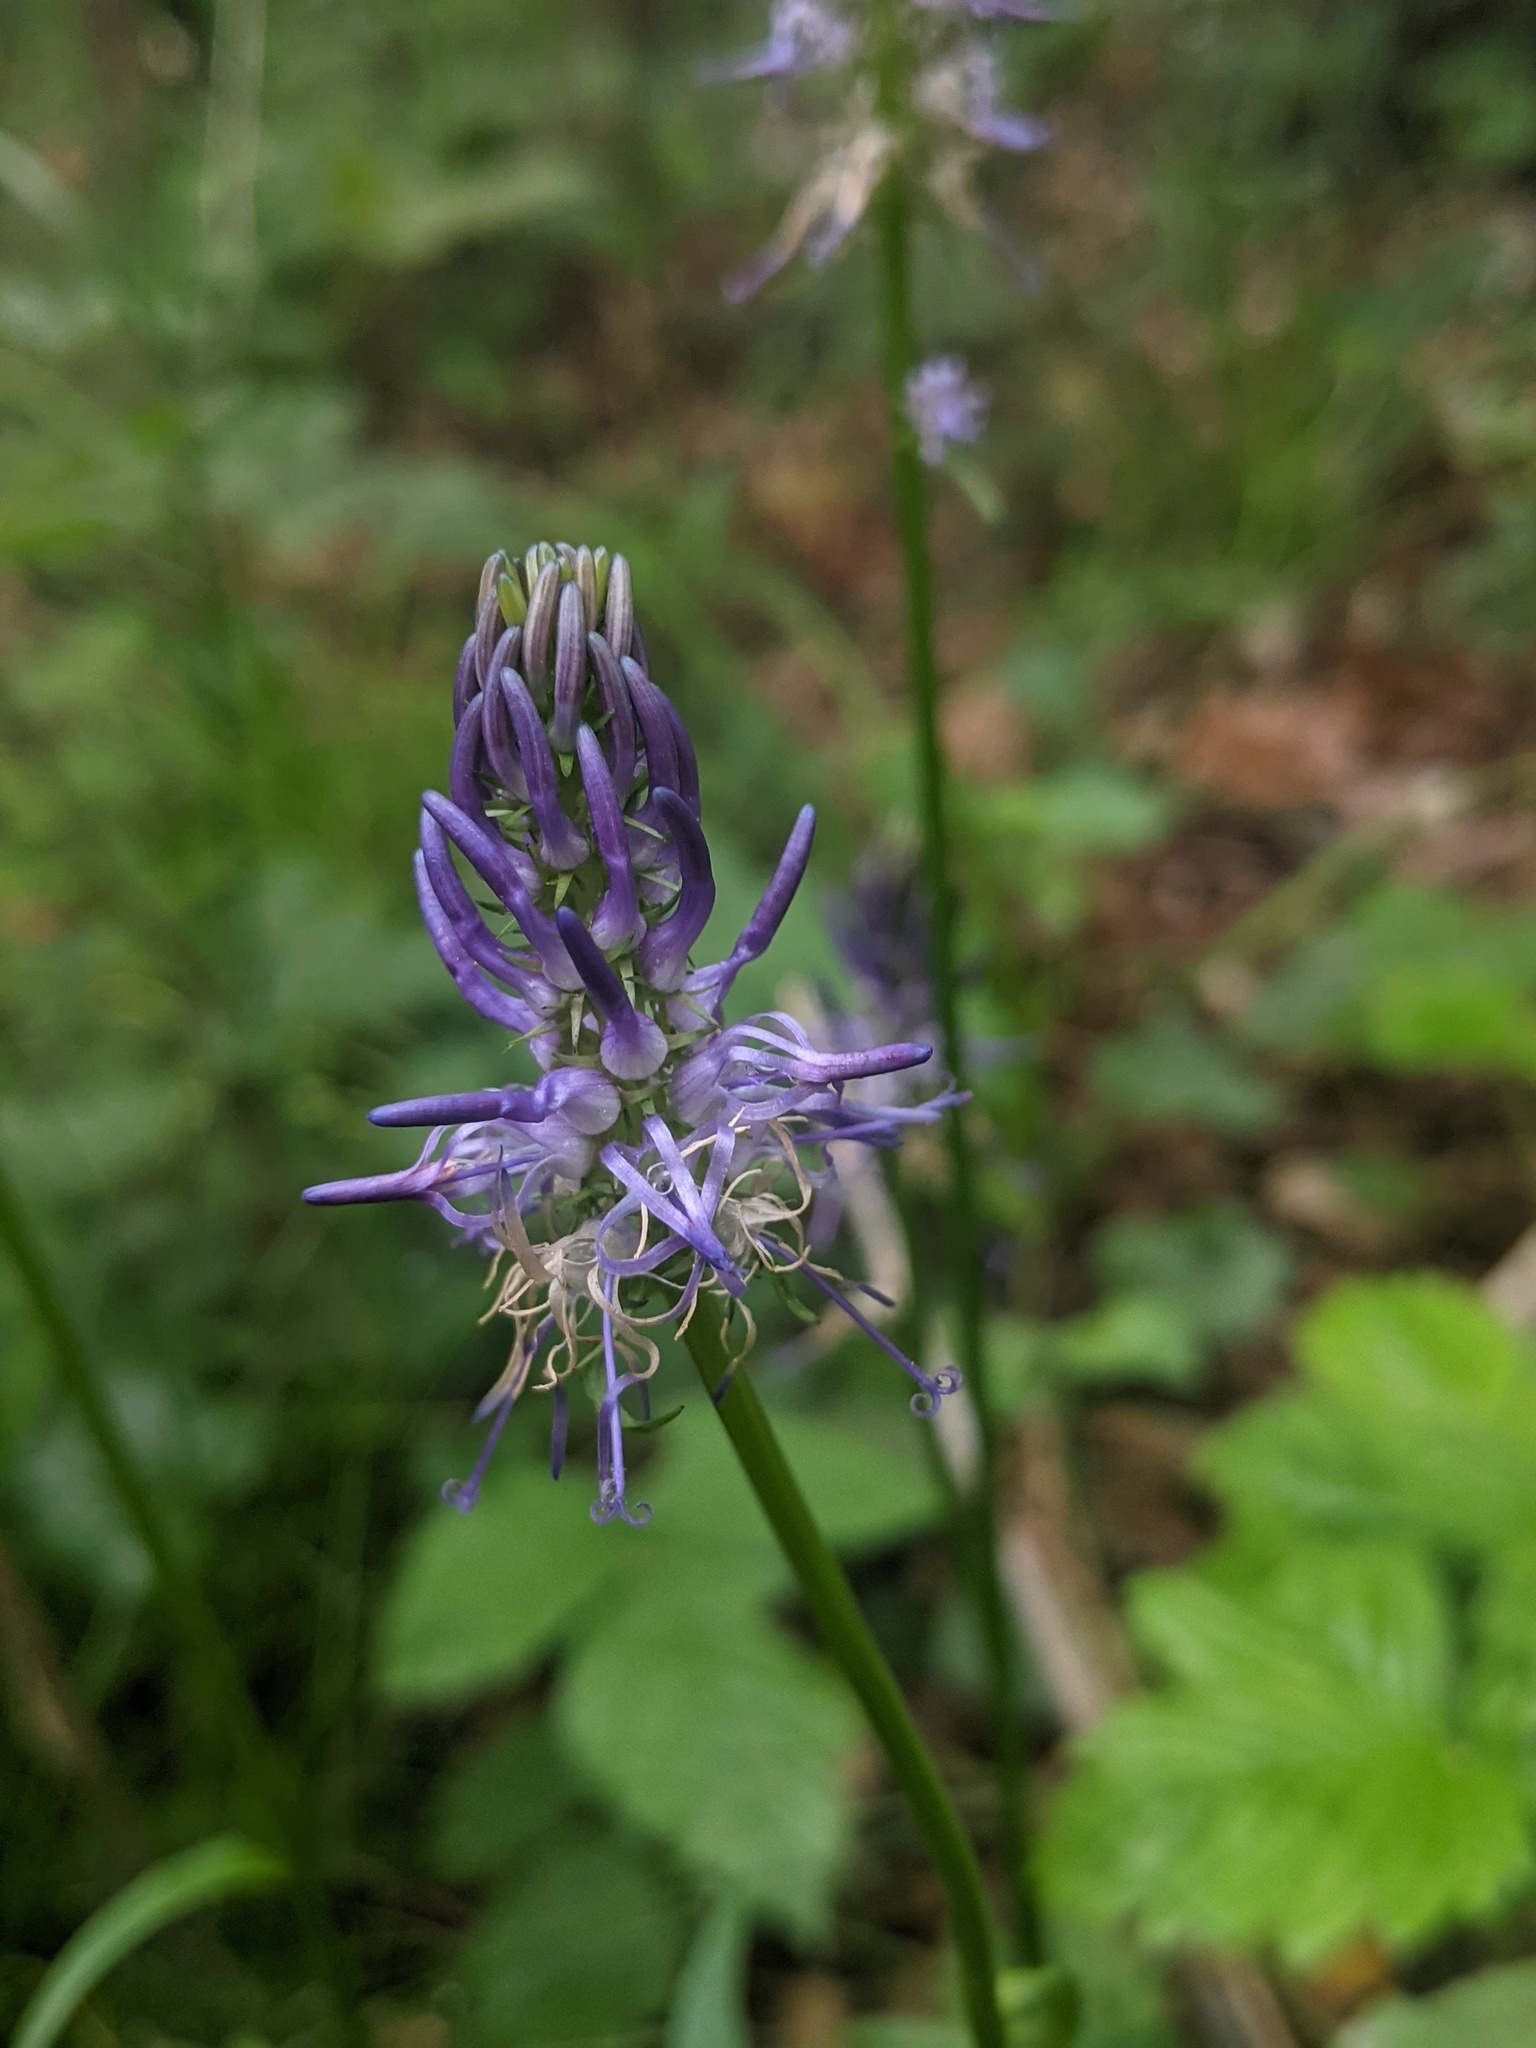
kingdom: Plantae
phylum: Tracheophyta
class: Magnoliopsida
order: Asterales
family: Campanulaceae
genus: Phyteuma
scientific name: Phyteuma betonicifolium
